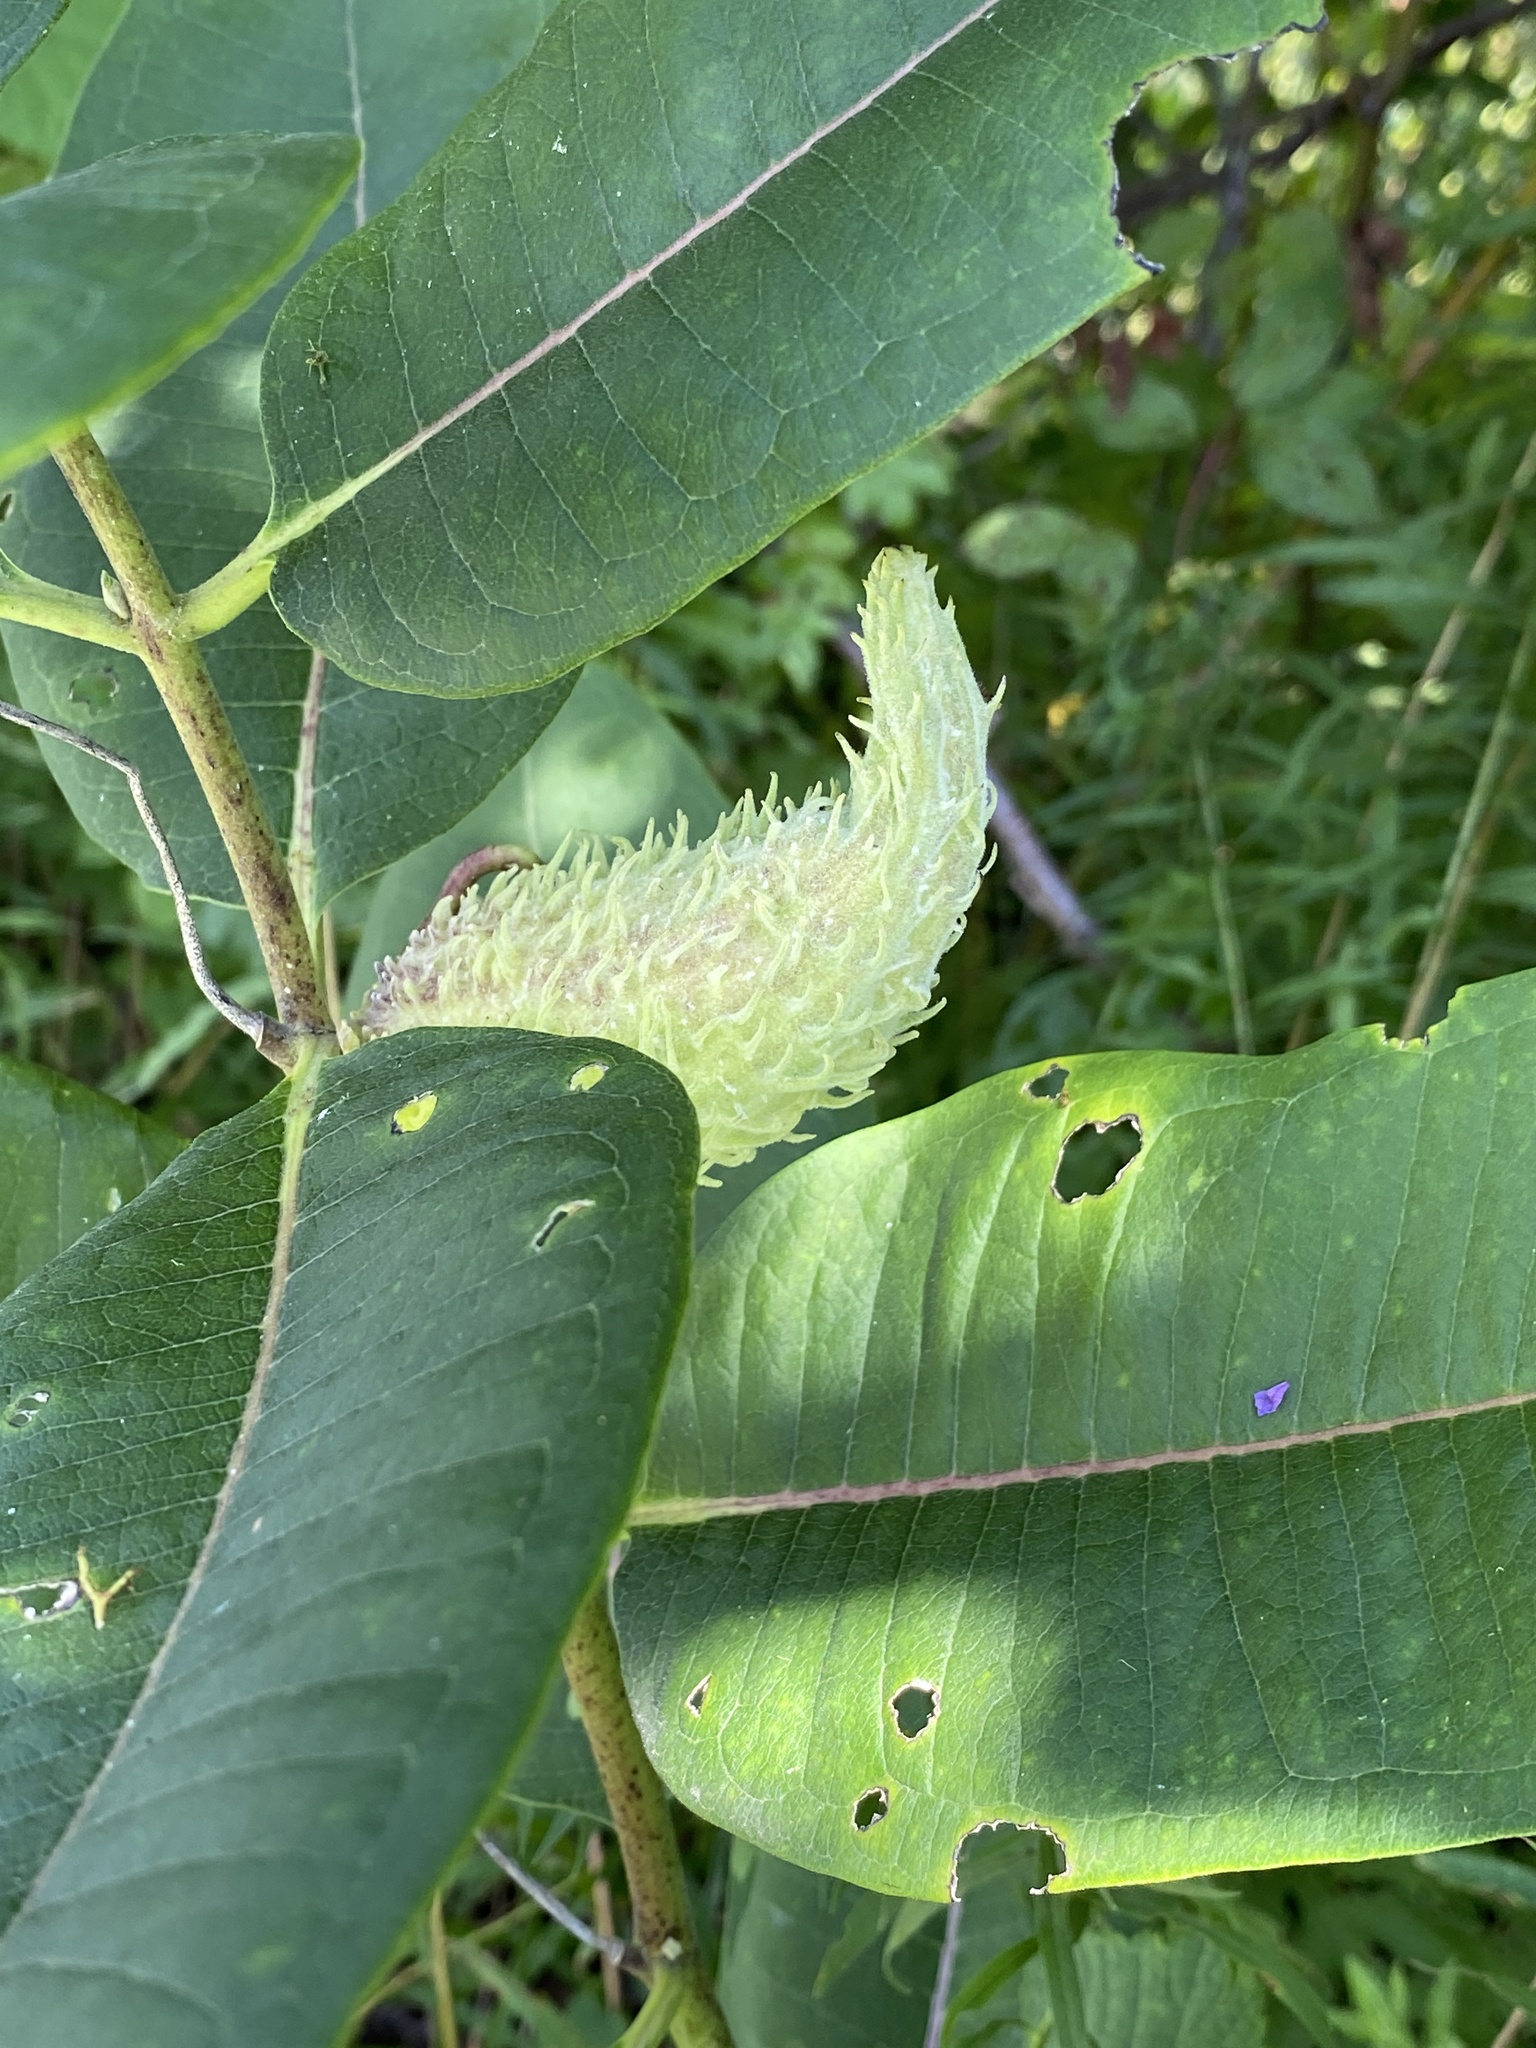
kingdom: Plantae
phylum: Tracheophyta
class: Magnoliopsida
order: Gentianales
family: Apocynaceae
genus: Asclepias
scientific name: Asclepias syriaca
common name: Common milkweed
